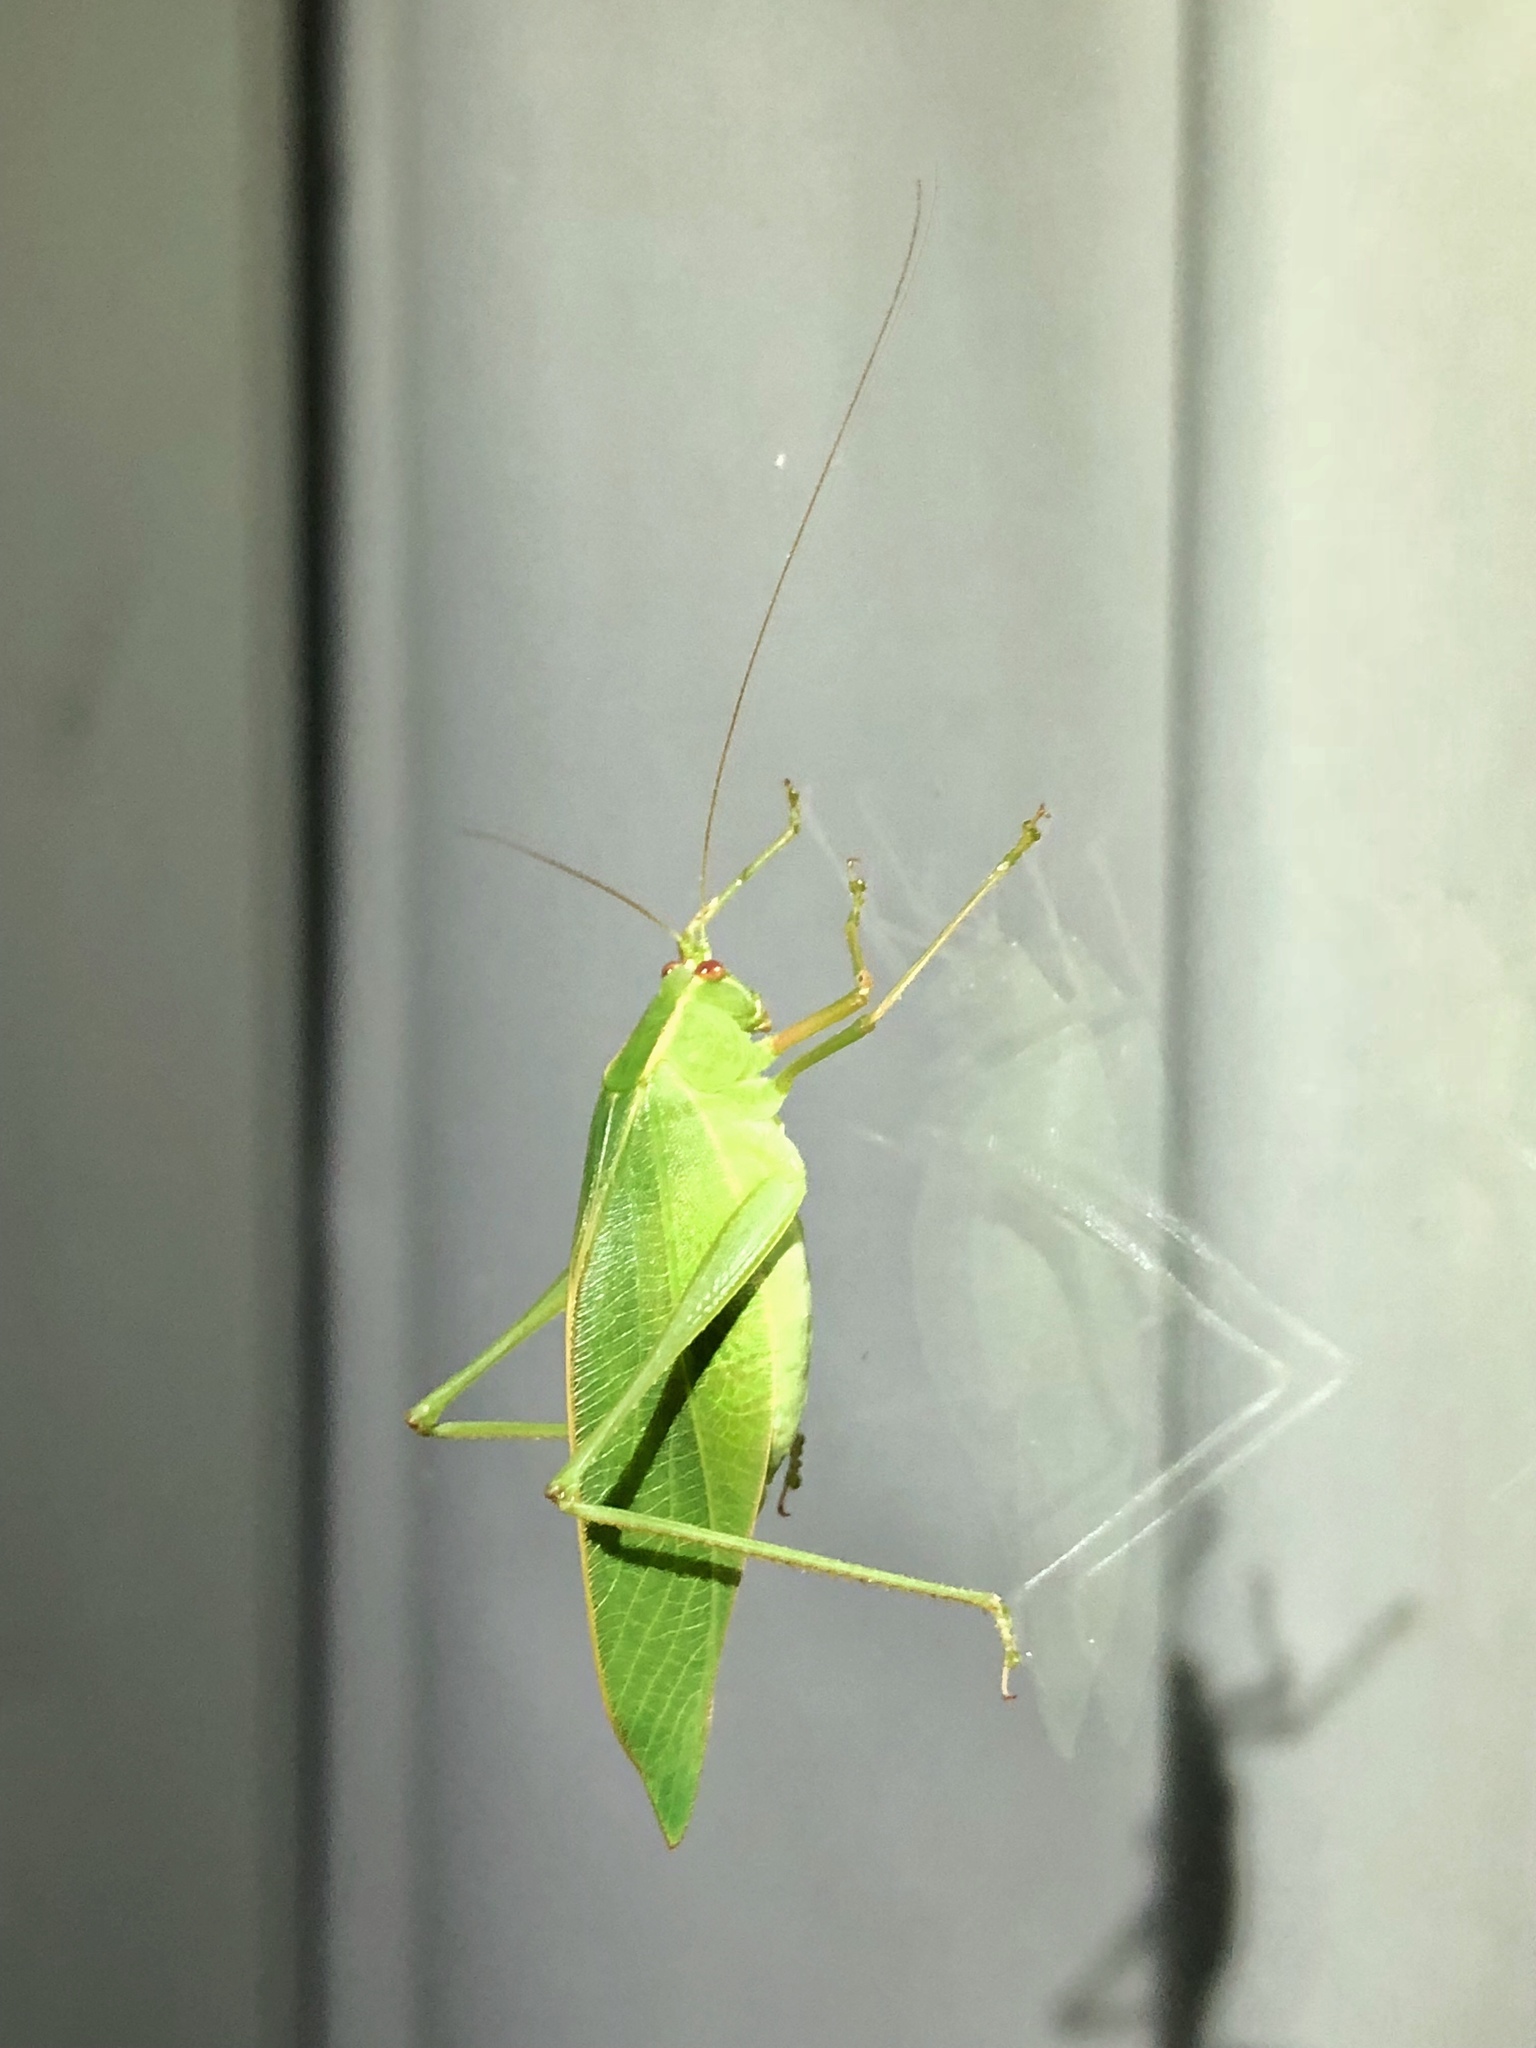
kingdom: Animalia
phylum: Arthropoda
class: Insecta
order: Orthoptera
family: Tettigoniidae
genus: Caedicia
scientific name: Caedicia simplex
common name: Common garden katydid
